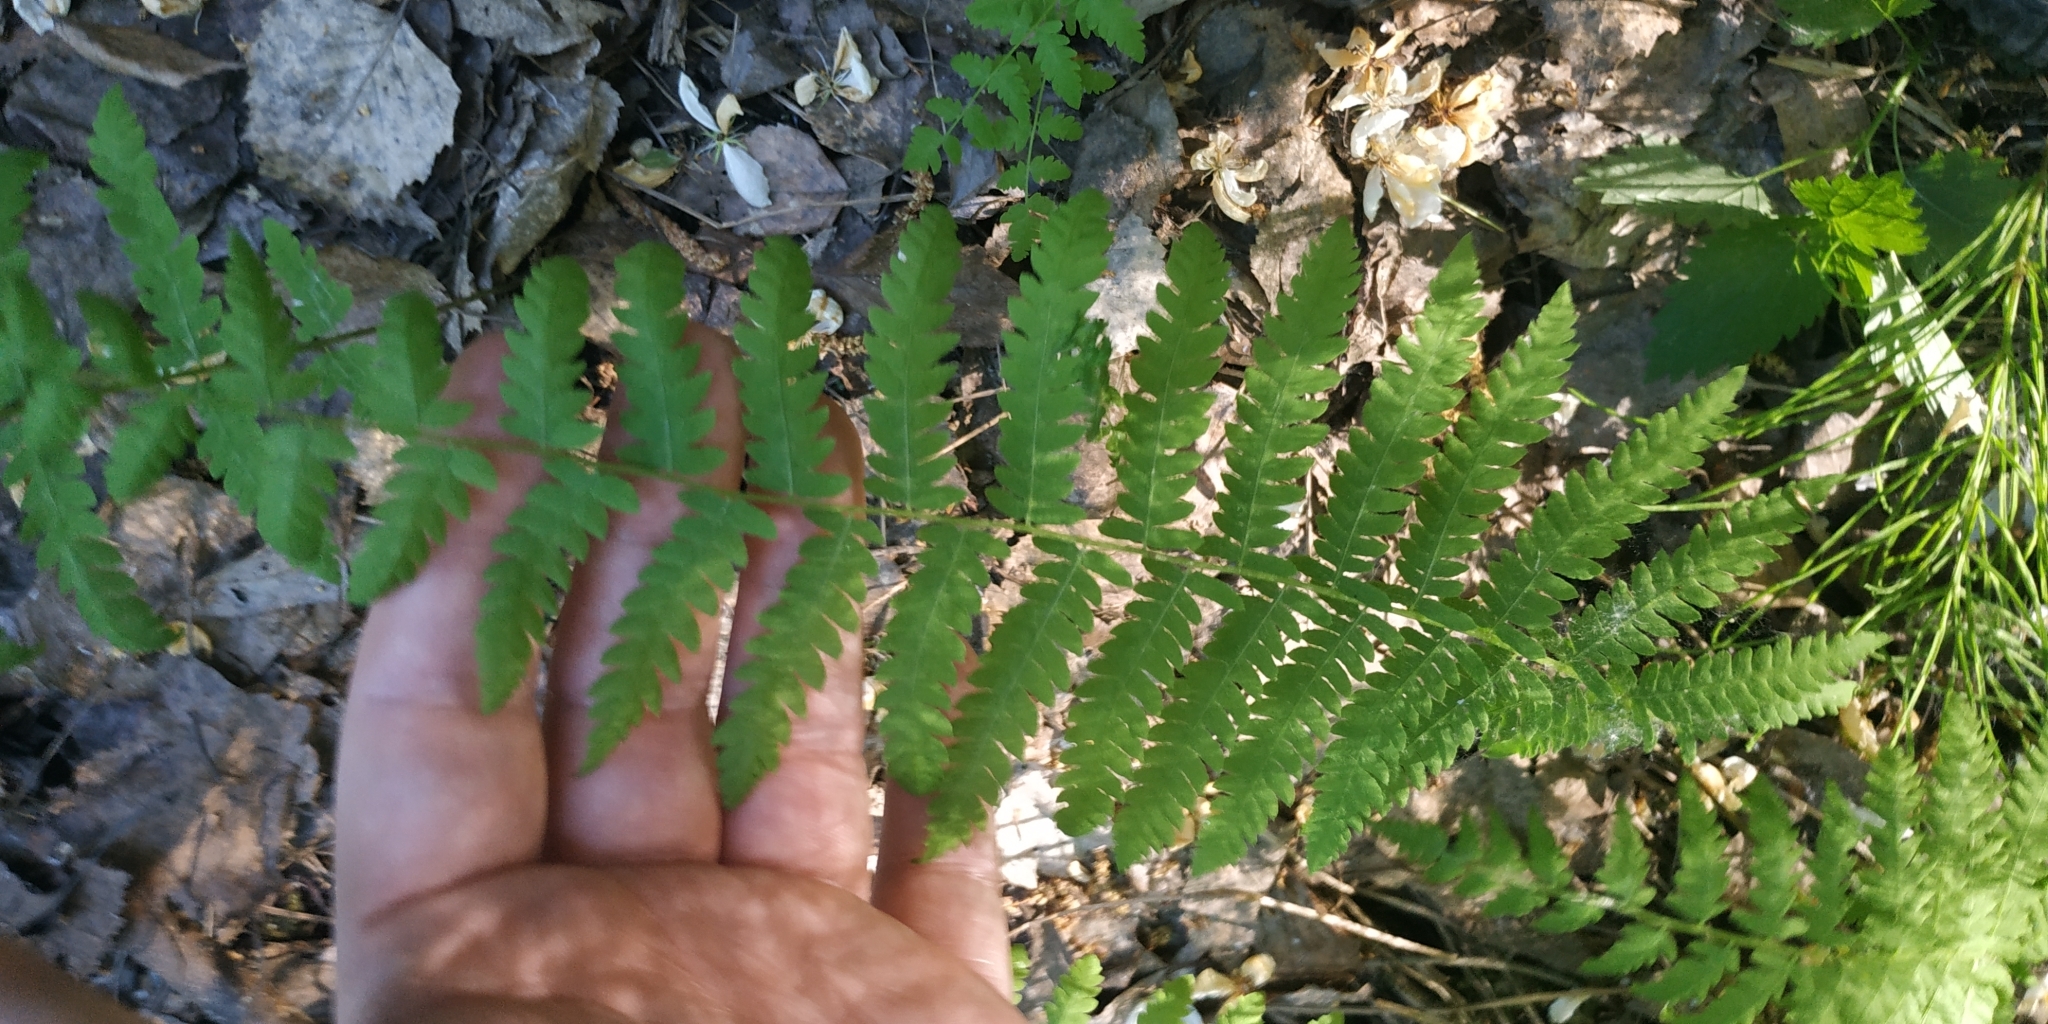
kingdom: Plantae
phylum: Tracheophyta
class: Polypodiopsida
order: Polypodiales
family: Thelypteridaceae
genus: Thelypteris
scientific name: Thelypteris palustris
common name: Marsh fern
